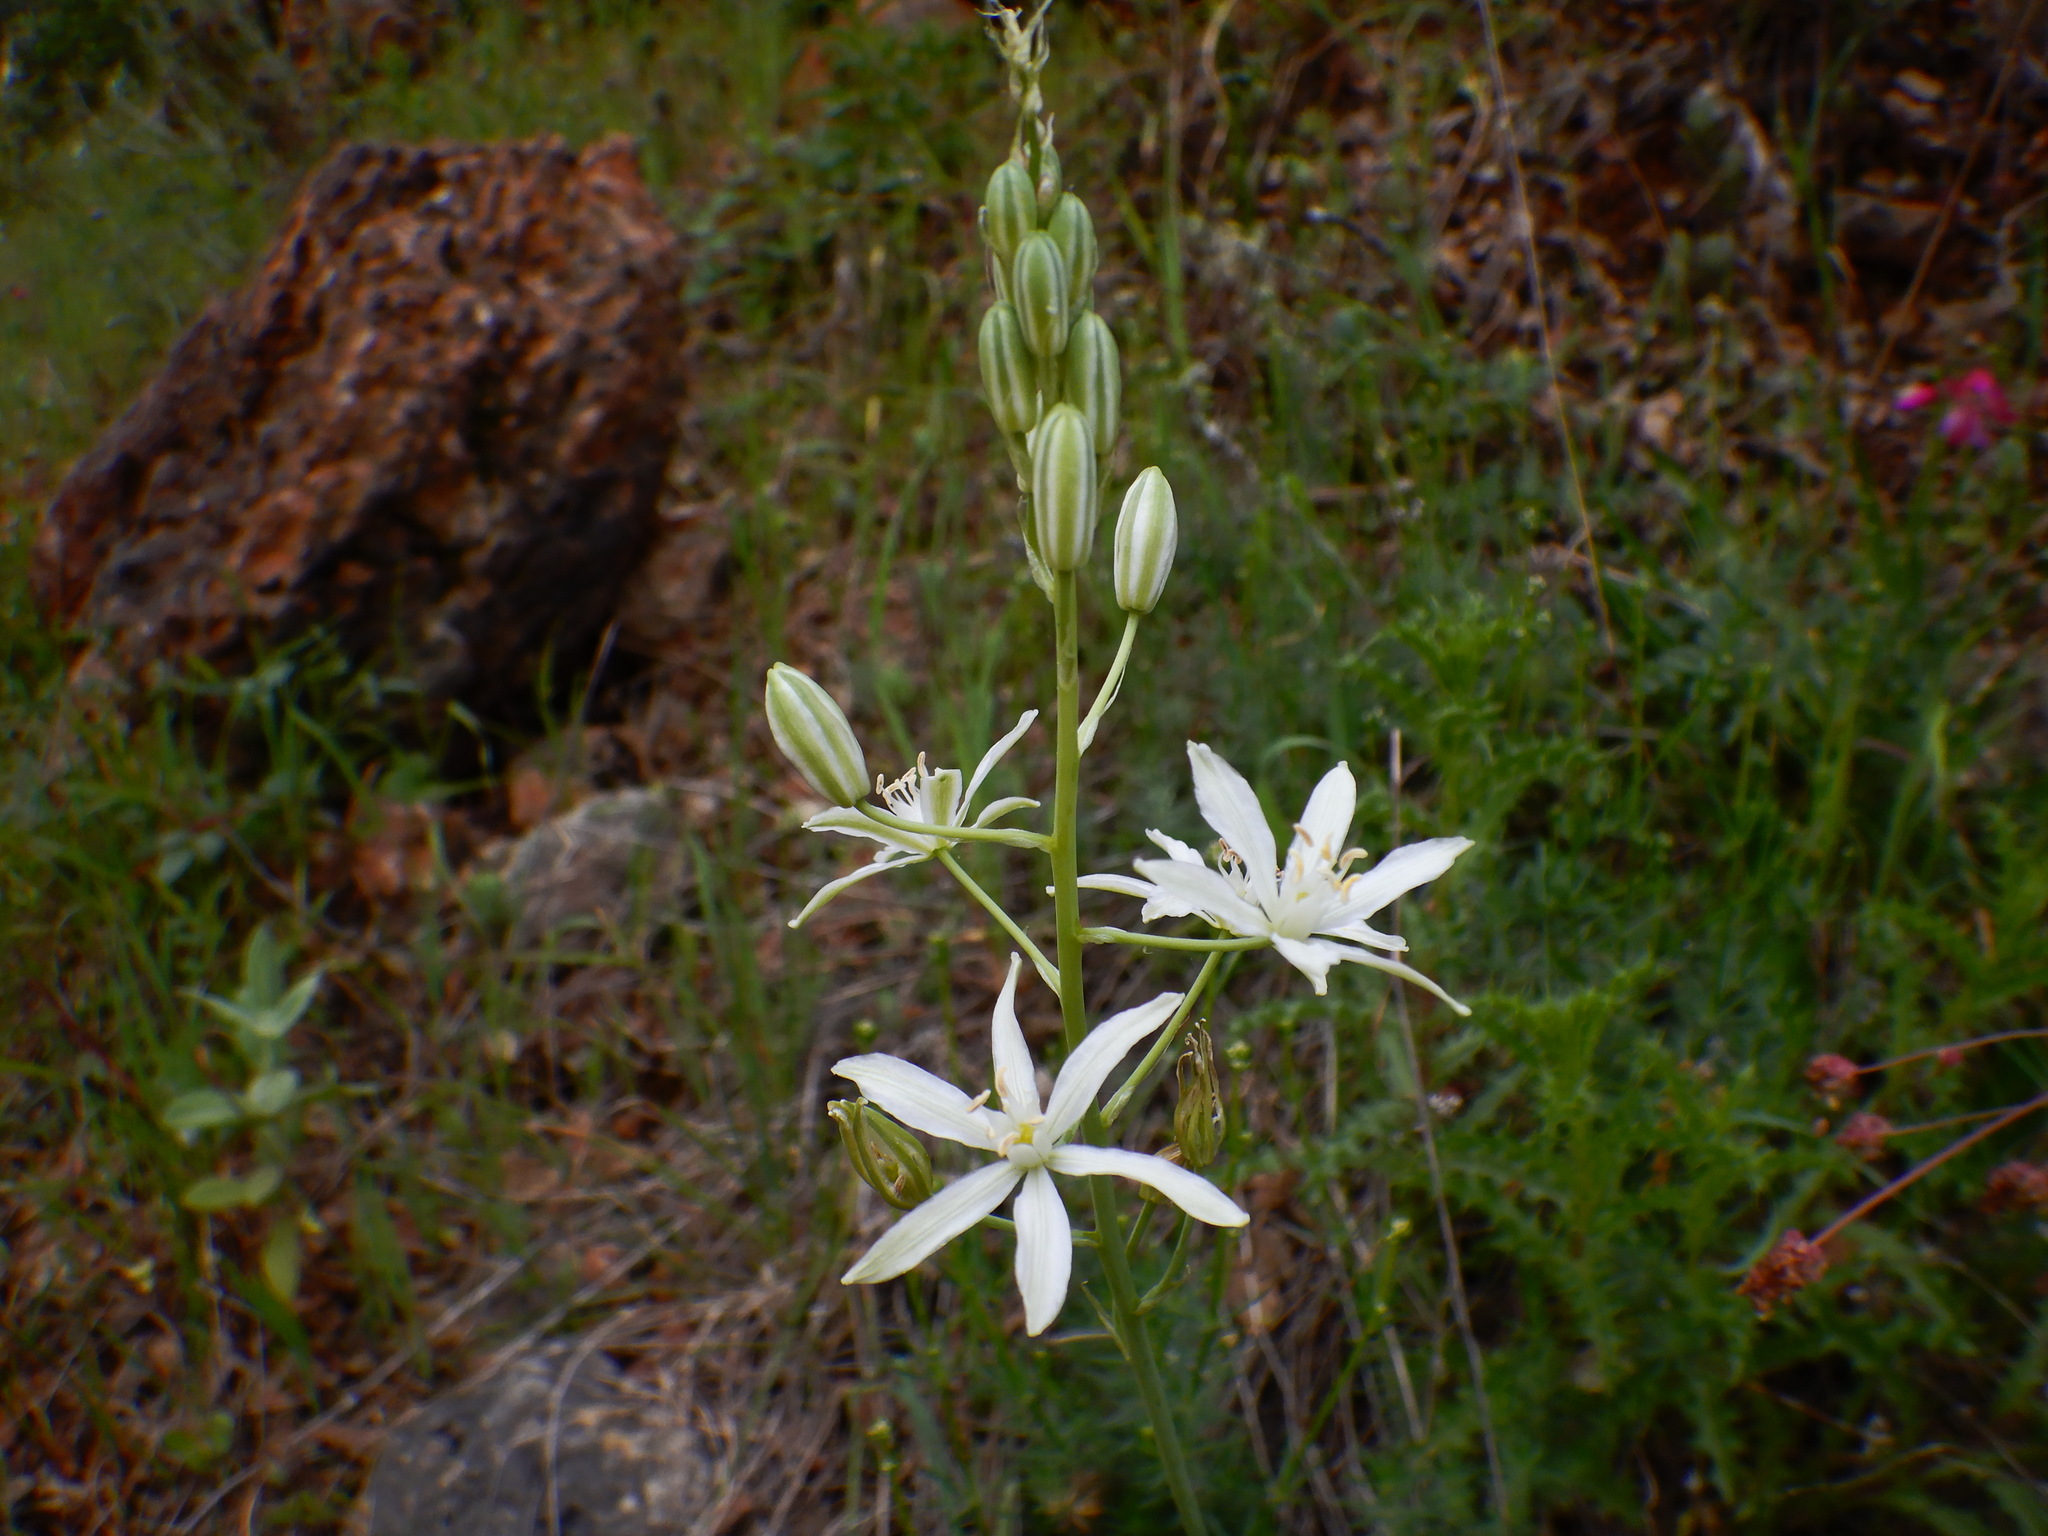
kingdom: Plantae
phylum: Tracheophyta
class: Liliopsida
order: Asparagales
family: Asparagaceae
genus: Ornithogalum
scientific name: Ornithogalum narbonense
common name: Bath-asparagus
